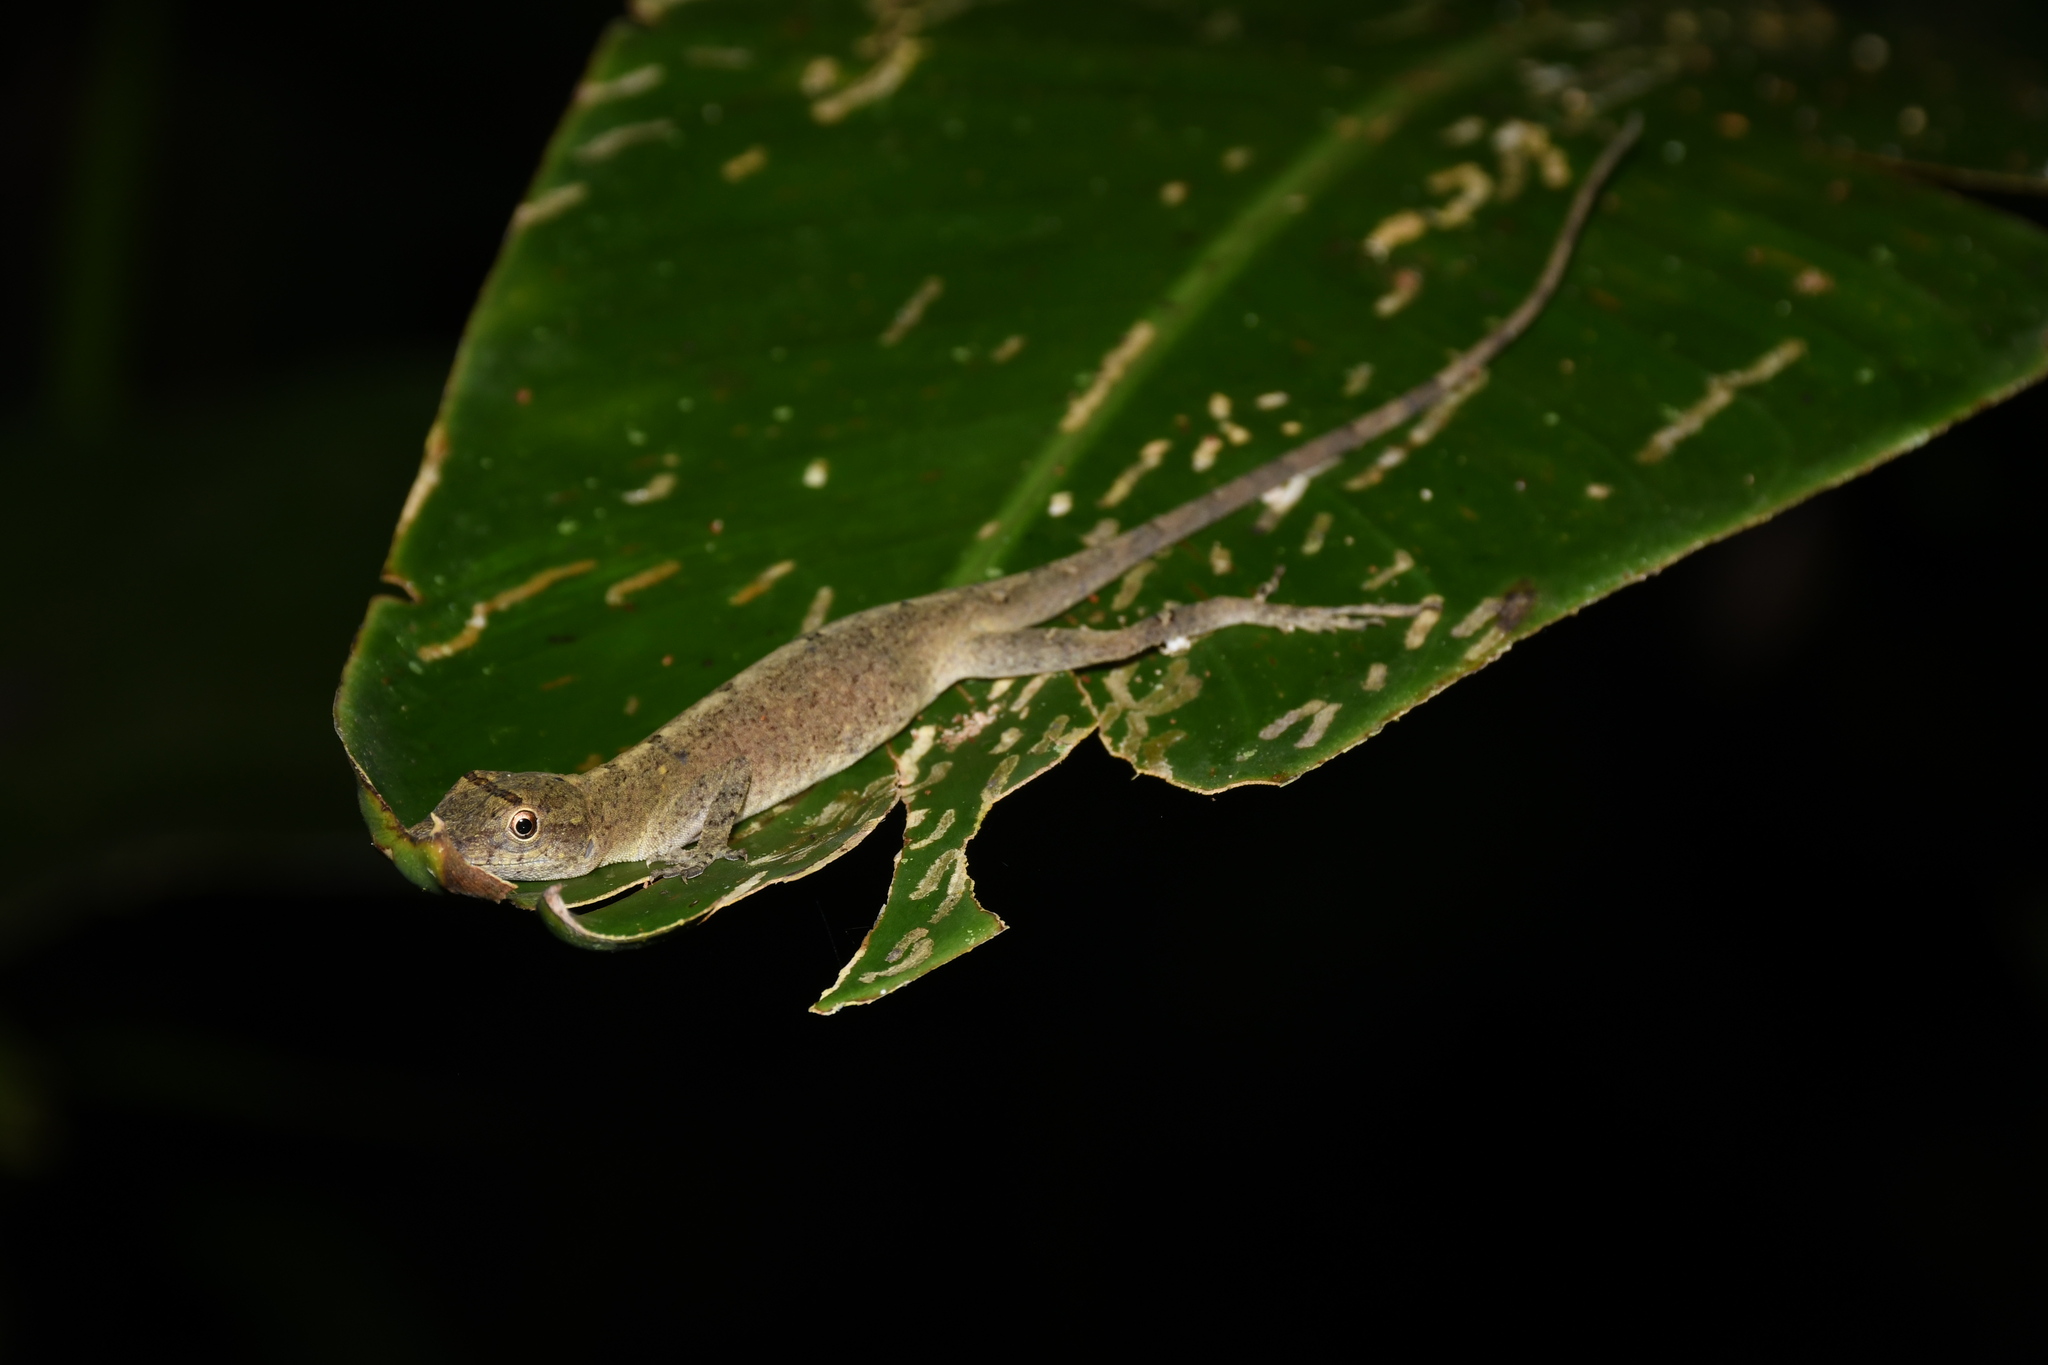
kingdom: Animalia
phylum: Chordata
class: Squamata
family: Dactyloidae
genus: Anolis
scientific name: Anolis fuscoauratus
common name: Brown-eared anole
